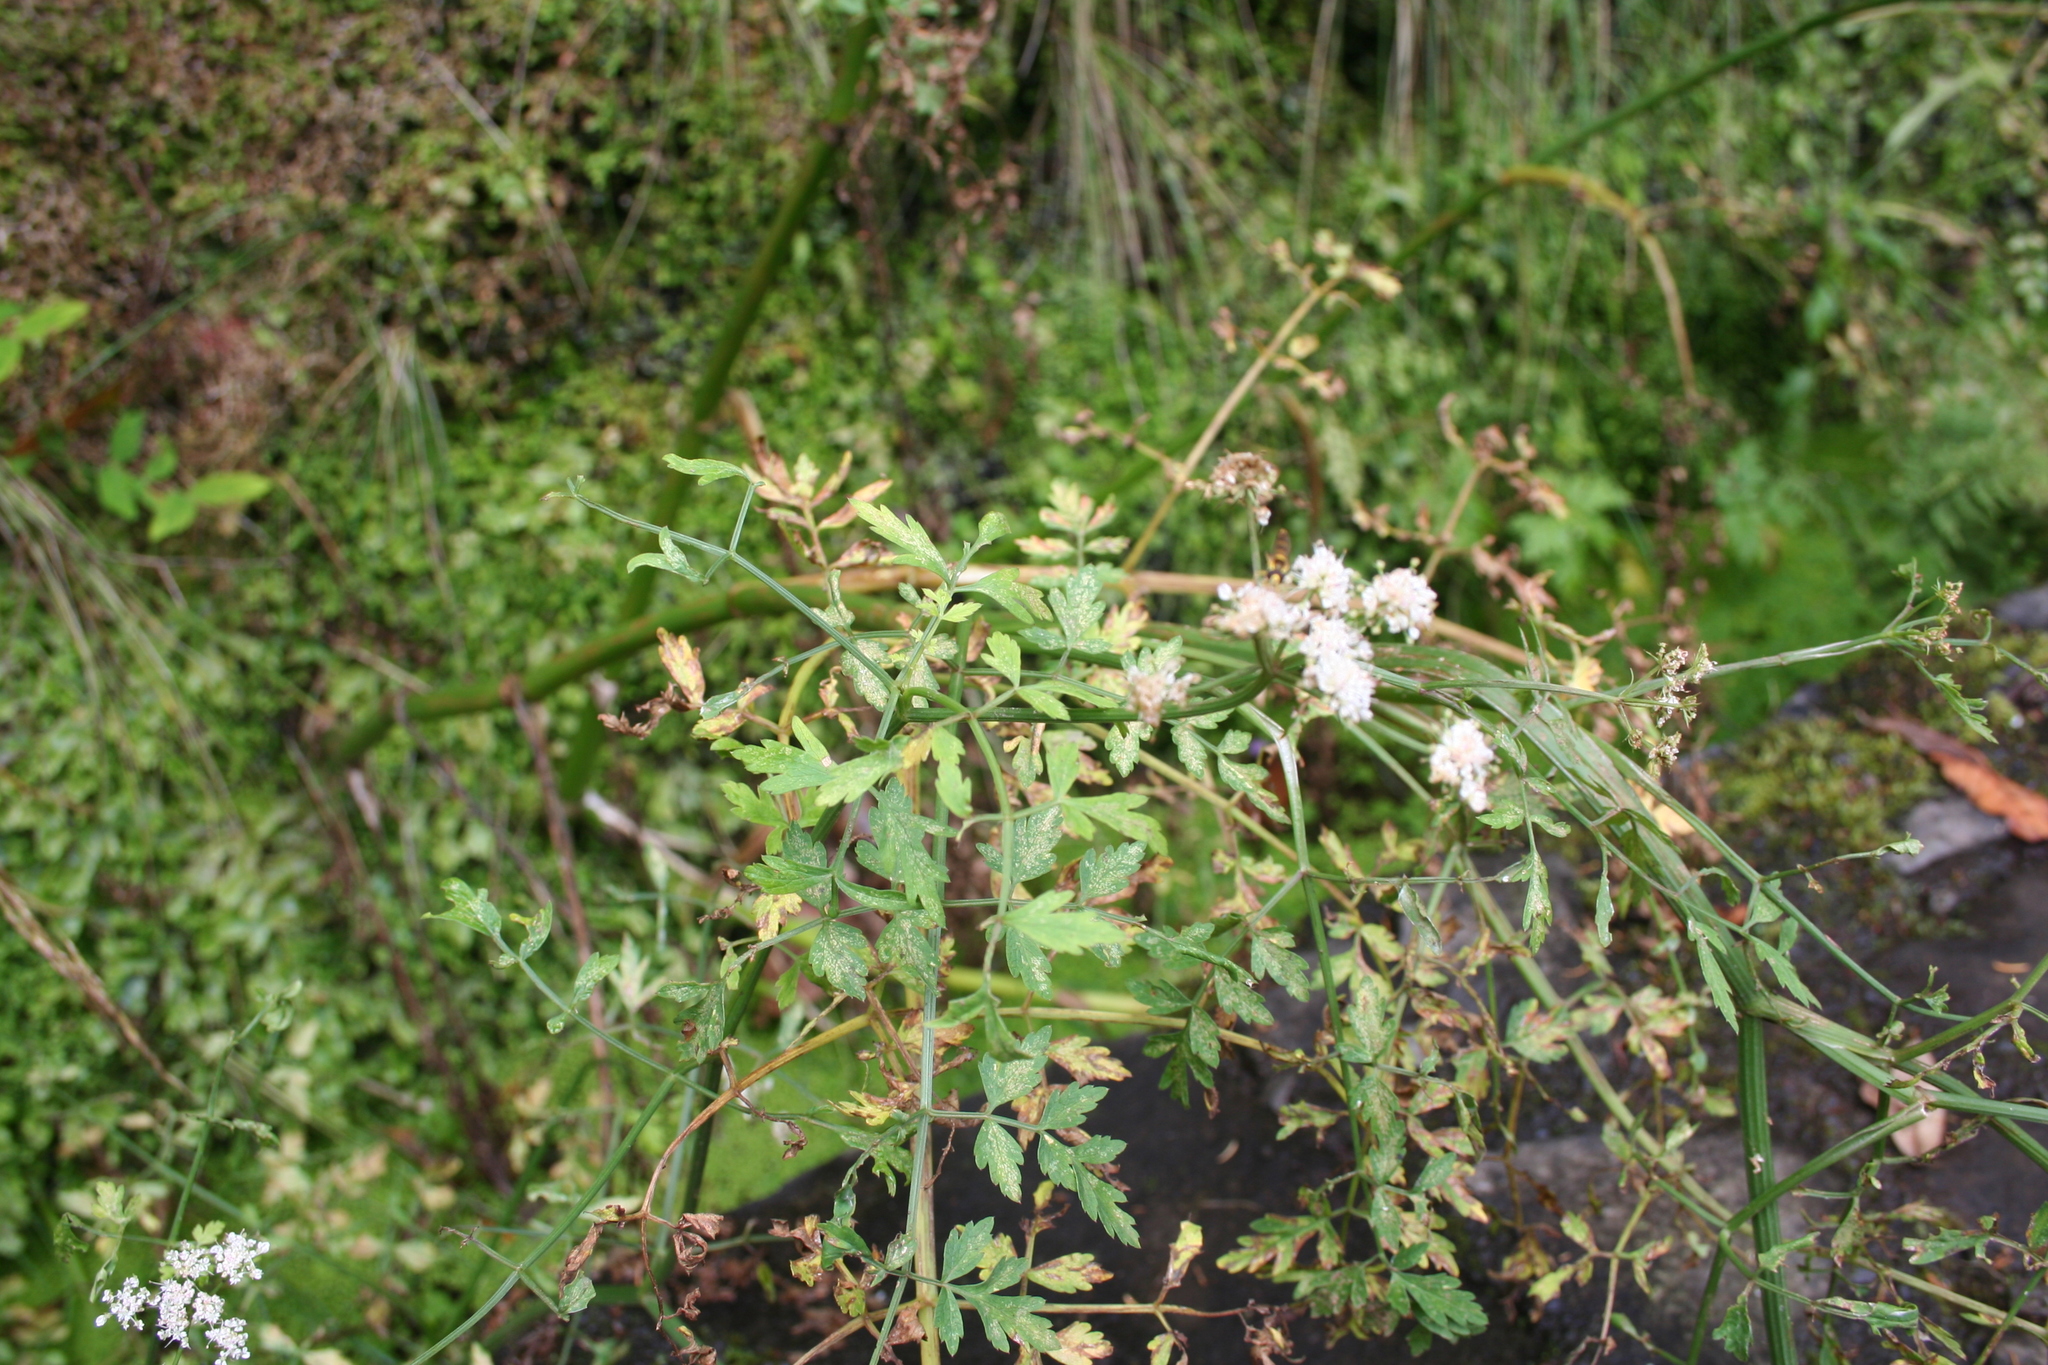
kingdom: Plantae
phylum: Tracheophyta
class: Magnoliopsida
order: Apiales
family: Apiaceae
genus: Oenanthe
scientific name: Oenanthe divaricata
